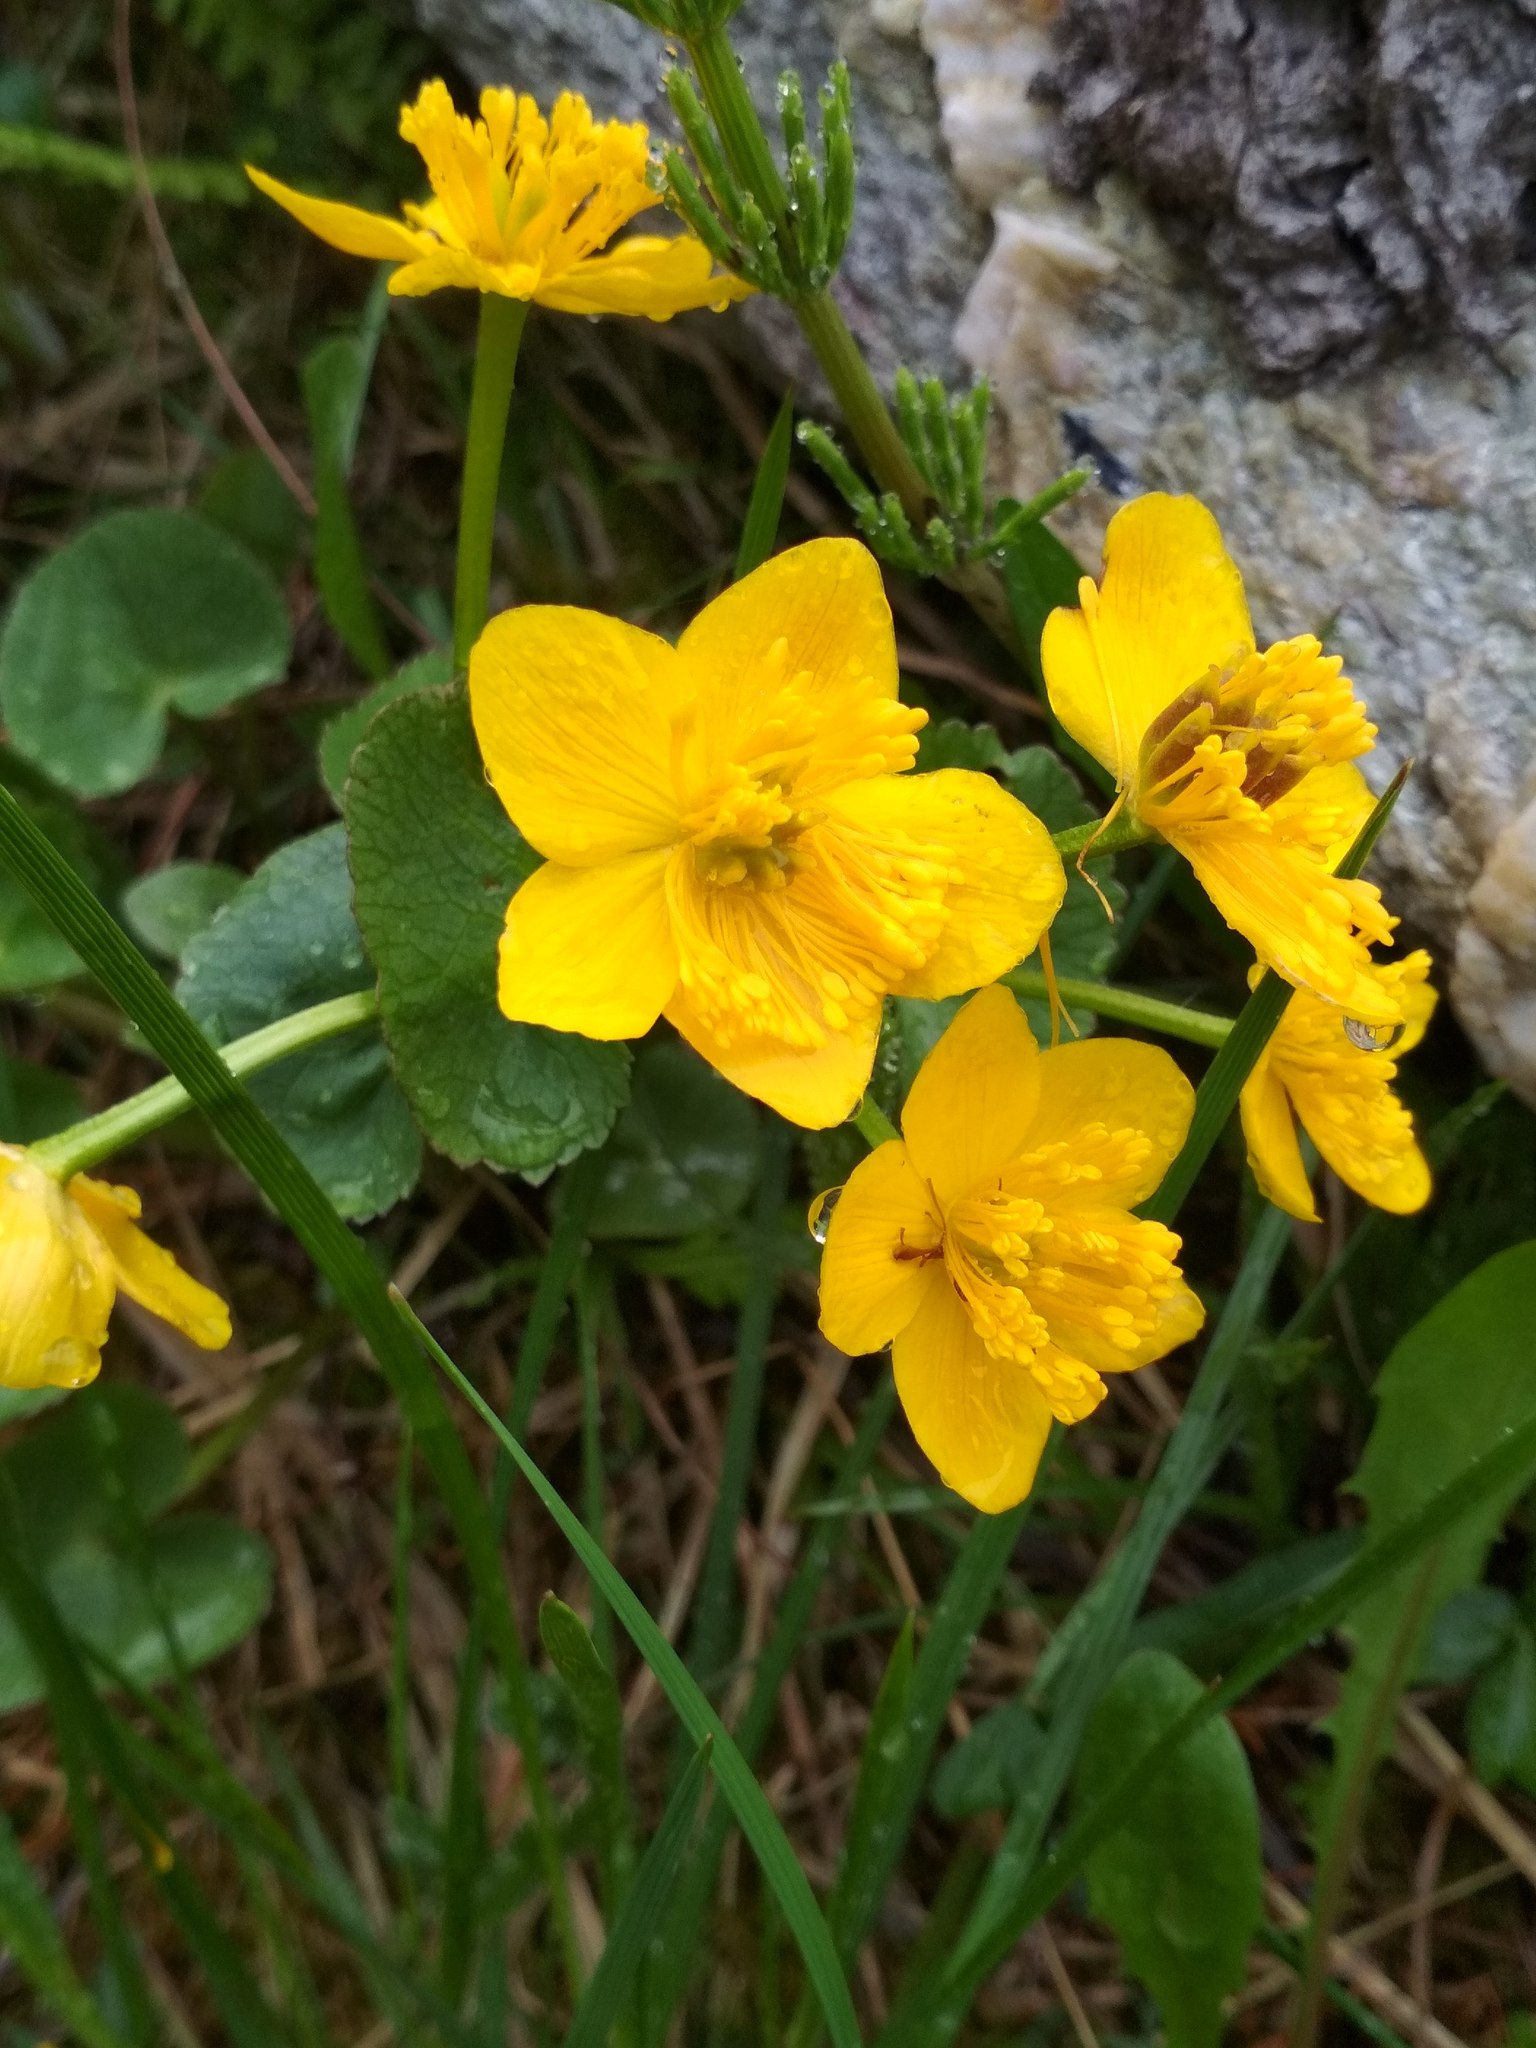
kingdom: Plantae
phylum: Tracheophyta
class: Magnoliopsida
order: Ranunculales
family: Ranunculaceae
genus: Caltha
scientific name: Caltha palustris
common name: Marsh marigold
